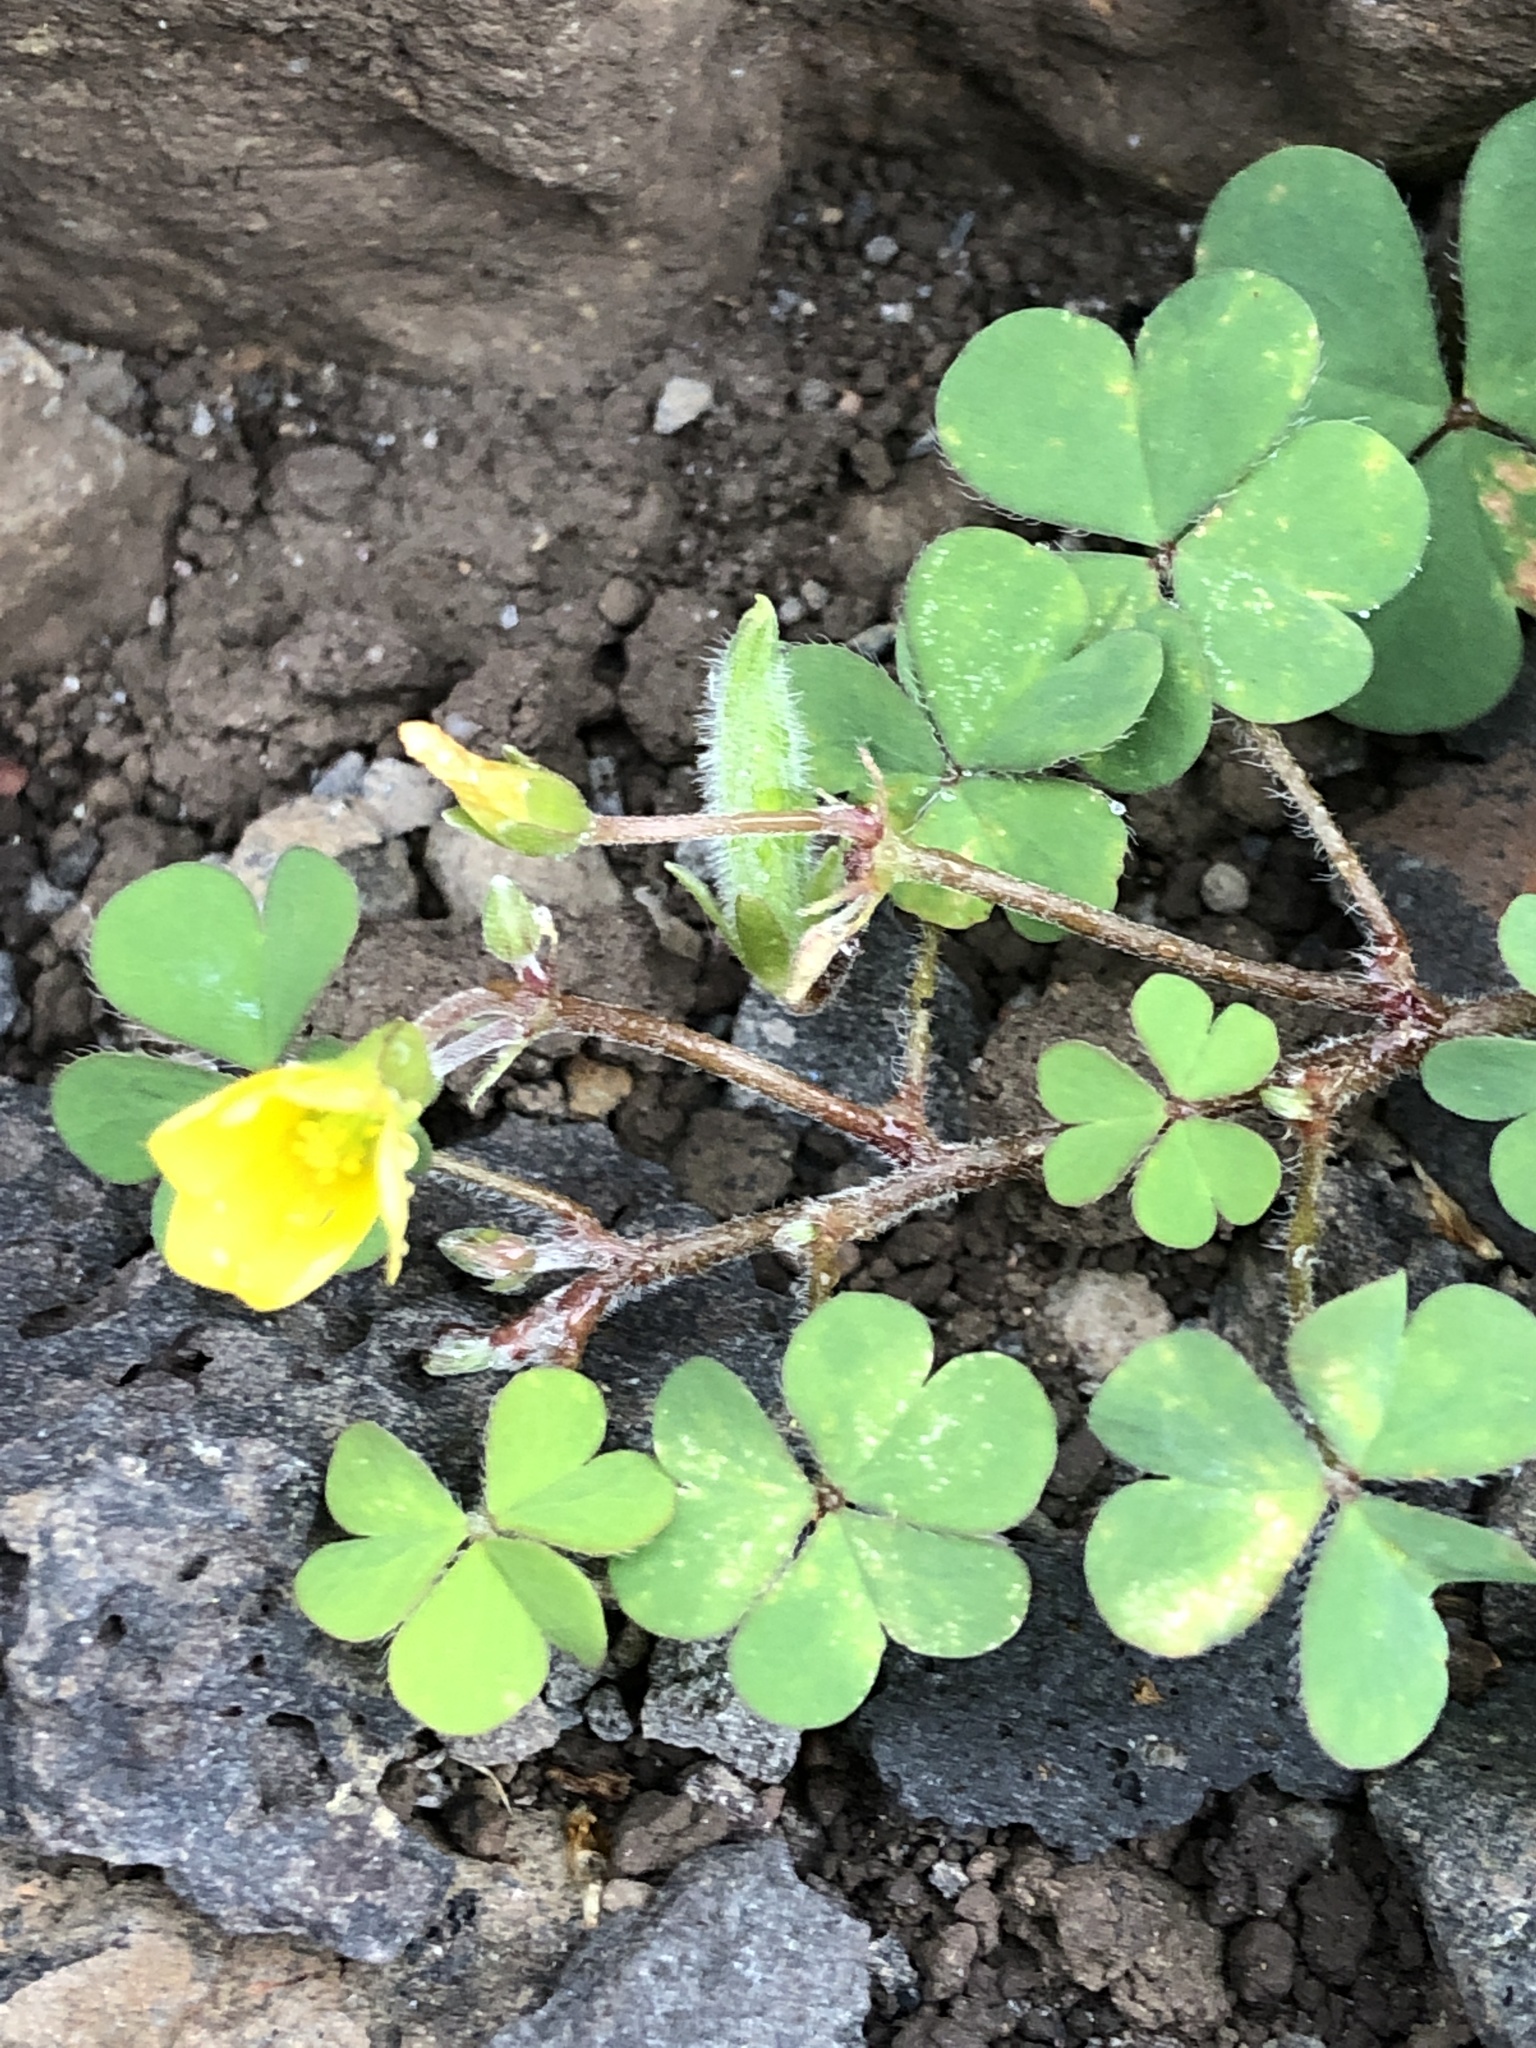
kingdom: Plantae
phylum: Tracheophyta
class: Magnoliopsida
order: Oxalidales
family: Oxalidaceae
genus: Oxalis
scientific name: Oxalis corniculata
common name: Procumbent yellow-sorrel
